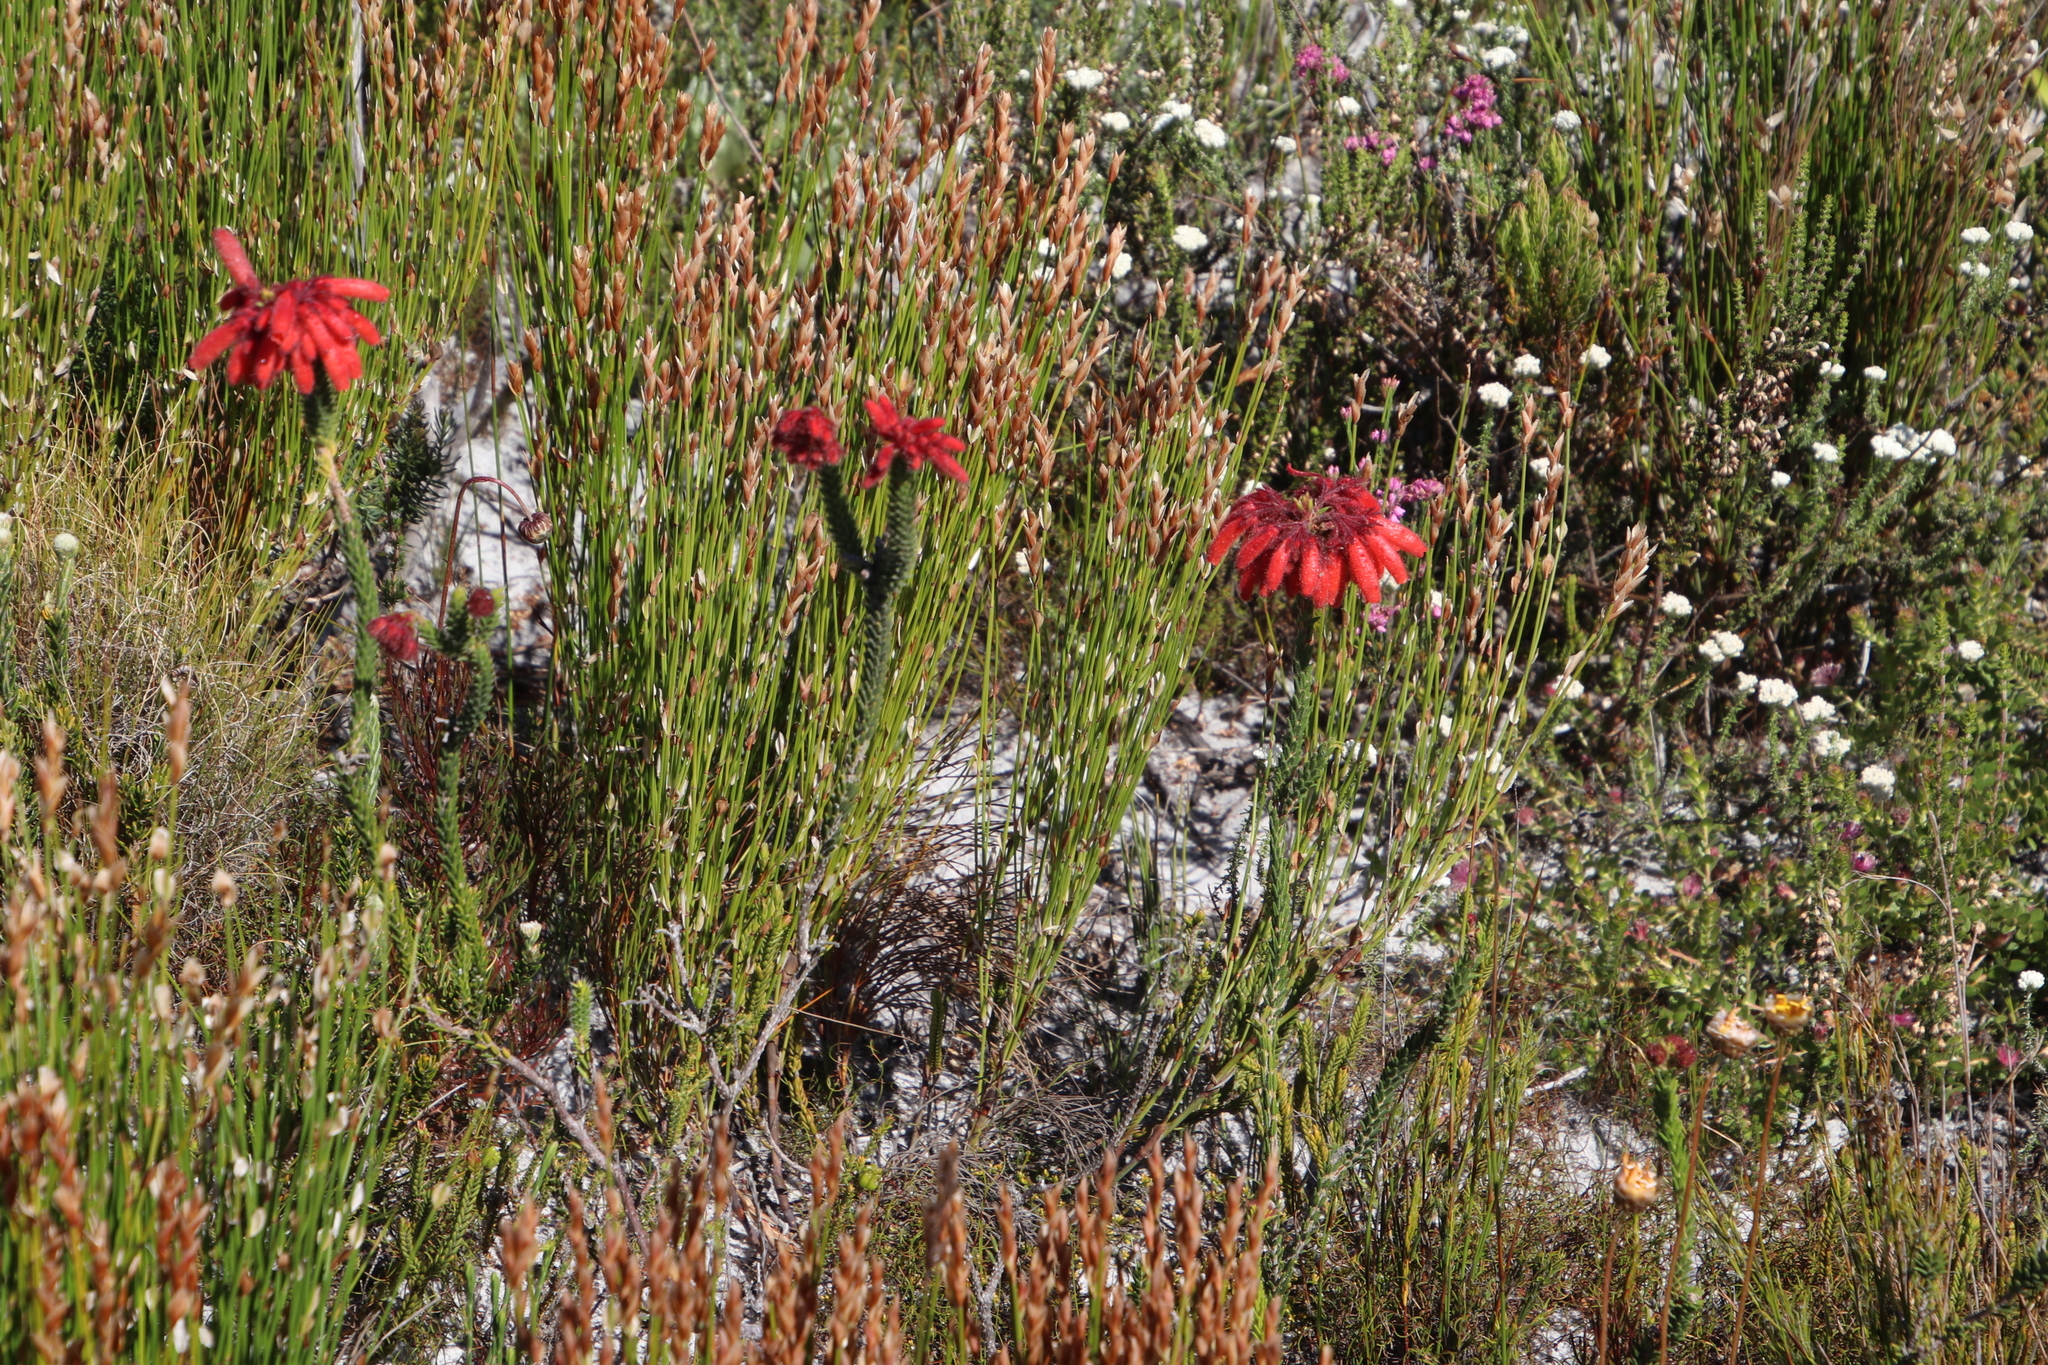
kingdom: Plantae
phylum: Tracheophyta
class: Magnoliopsida
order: Ericales
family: Ericaceae
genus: Erica
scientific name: Erica cerinthoides
